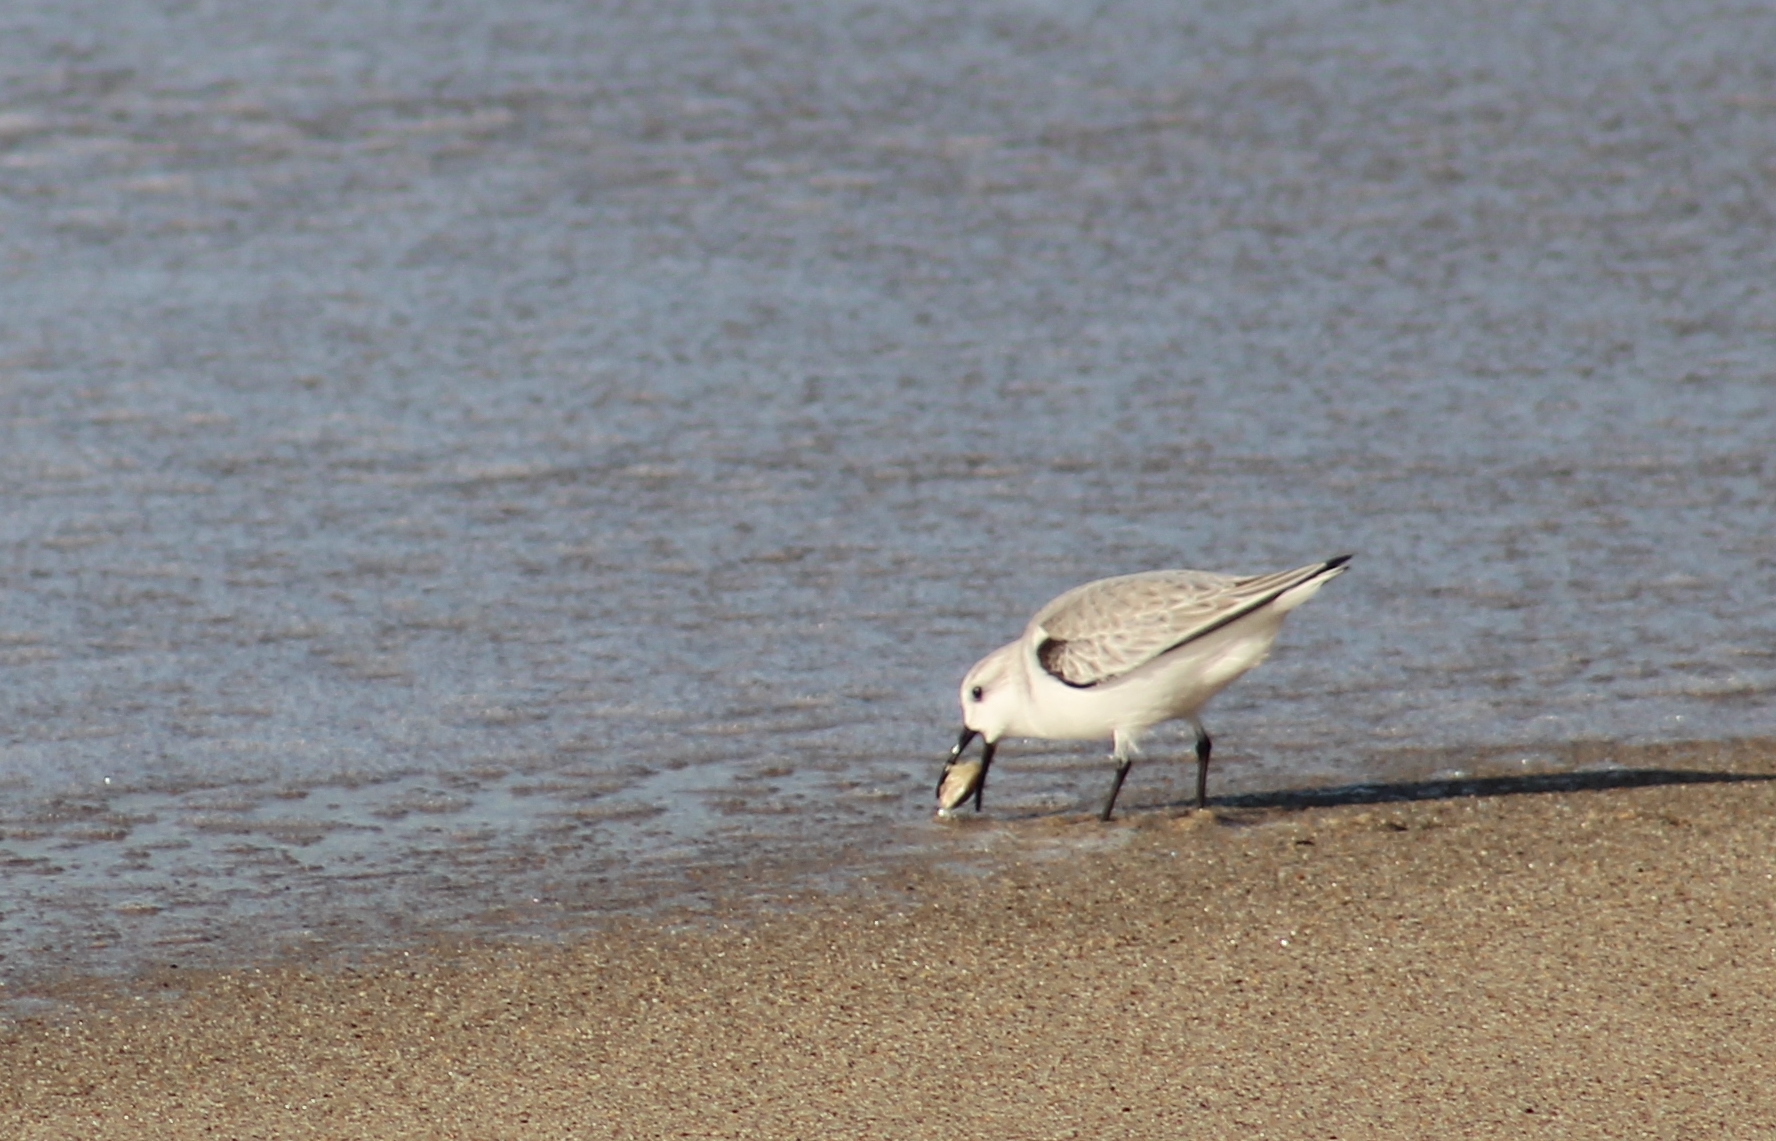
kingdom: Animalia
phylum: Chordata
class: Aves
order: Charadriiformes
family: Scolopacidae
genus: Calidris
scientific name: Calidris alba
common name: Sanderling
